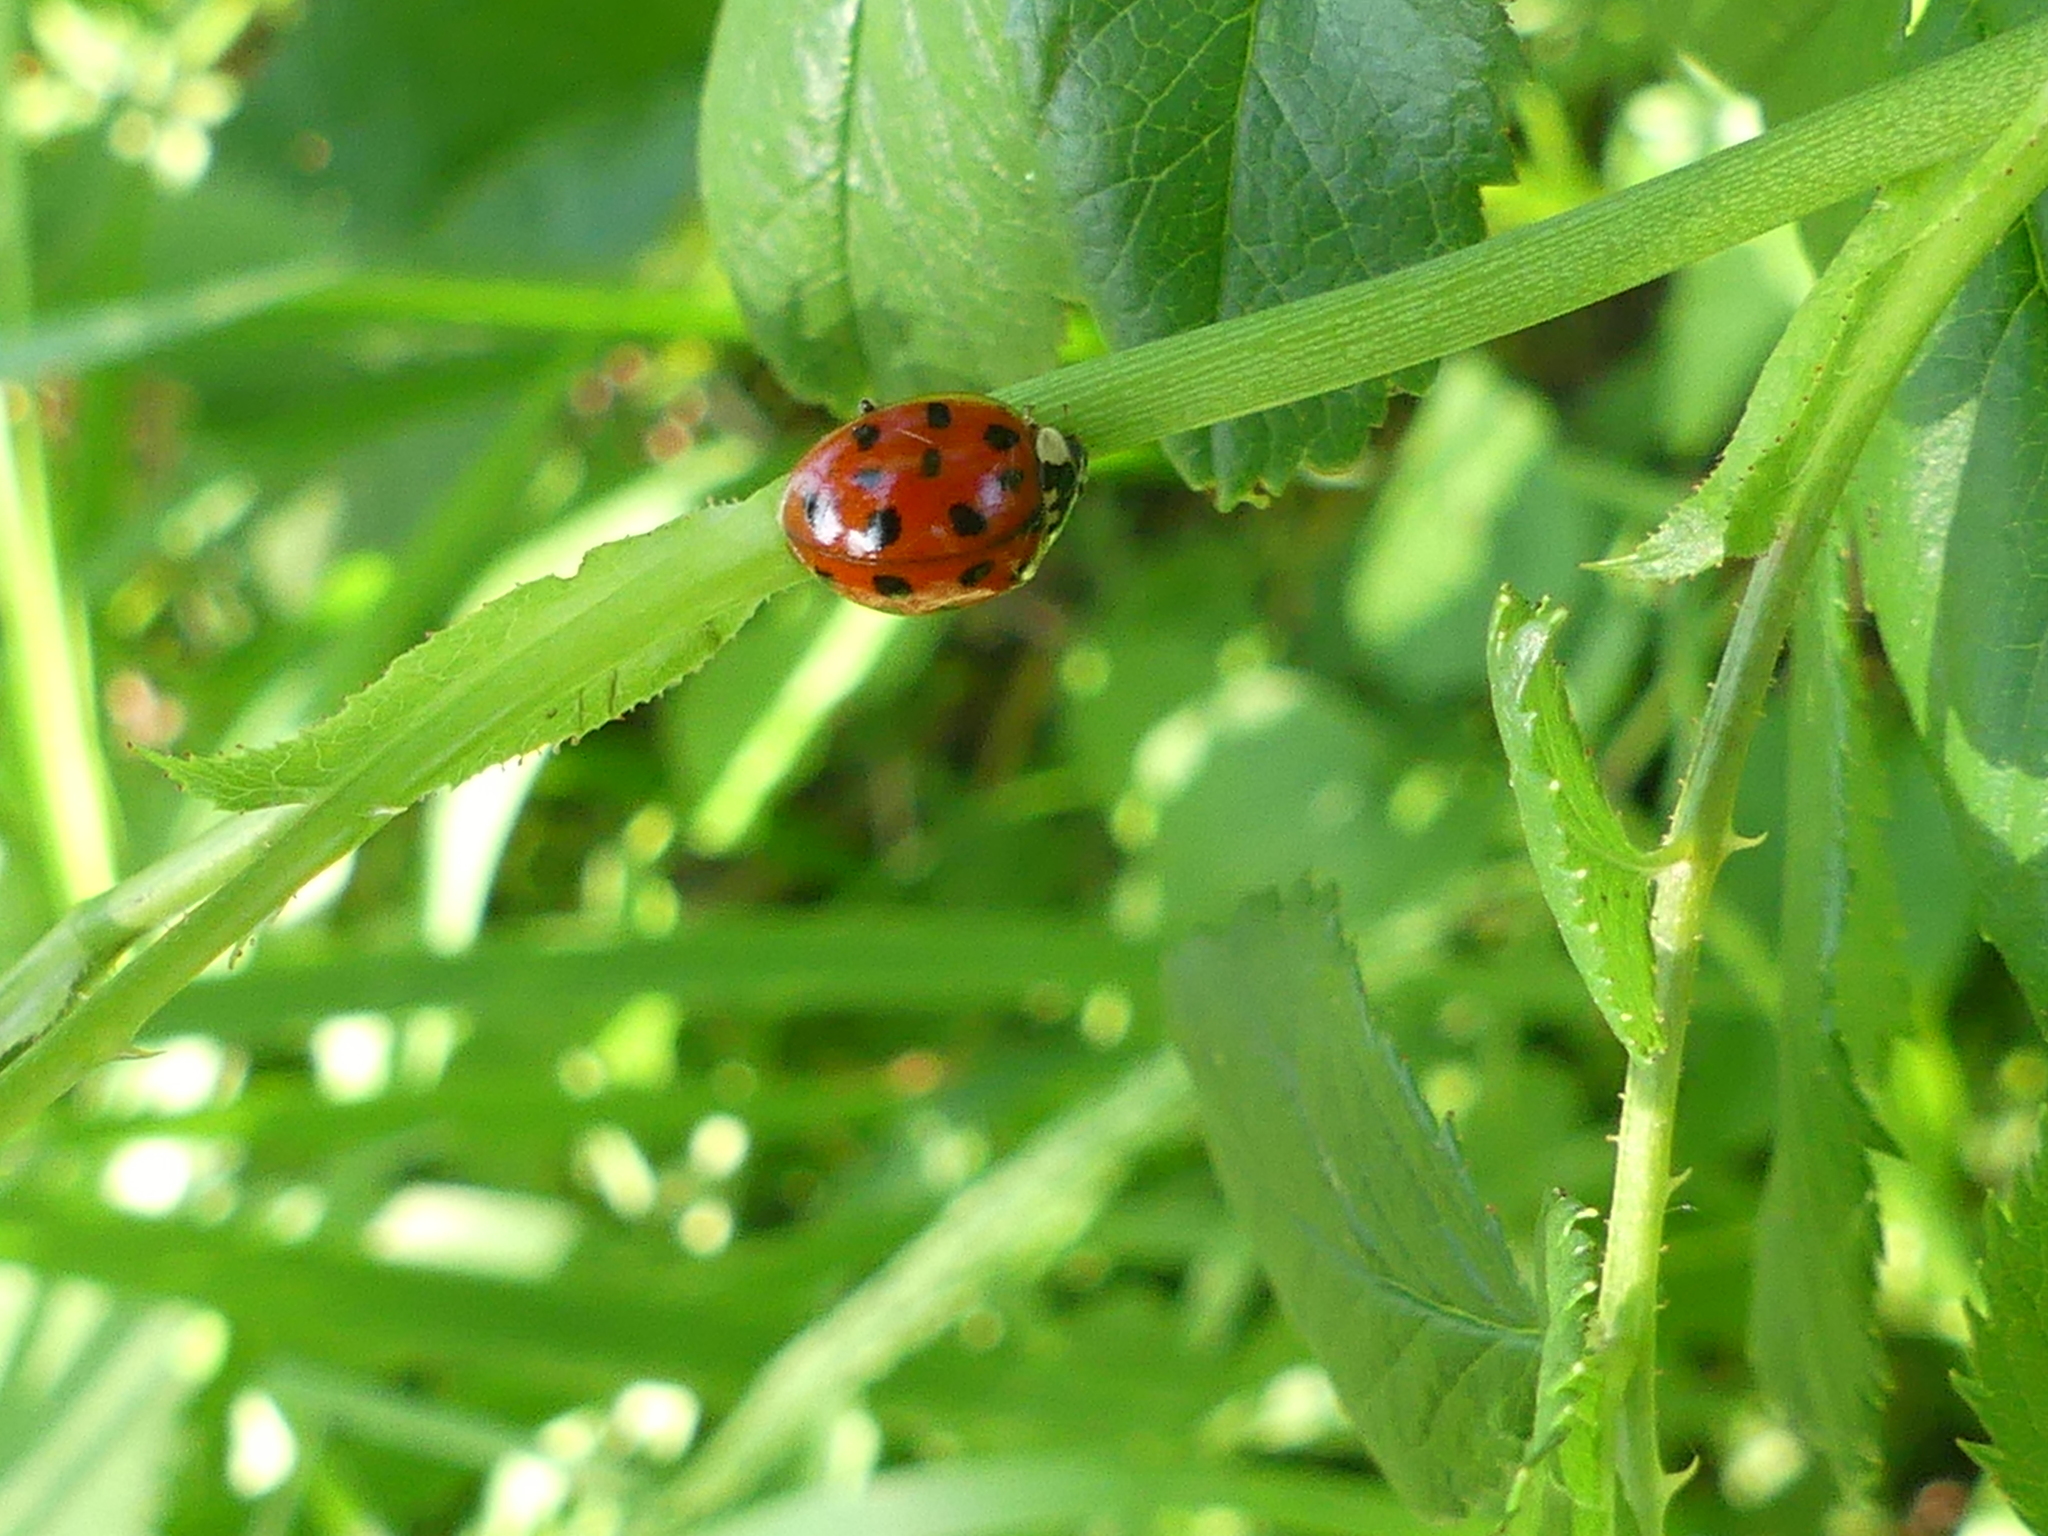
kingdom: Animalia
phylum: Arthropoda
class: Insecta
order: Coleoptera
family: Coccinellidae
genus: Harmonia
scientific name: Harmonia axyridis
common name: Harlequin ladybird
